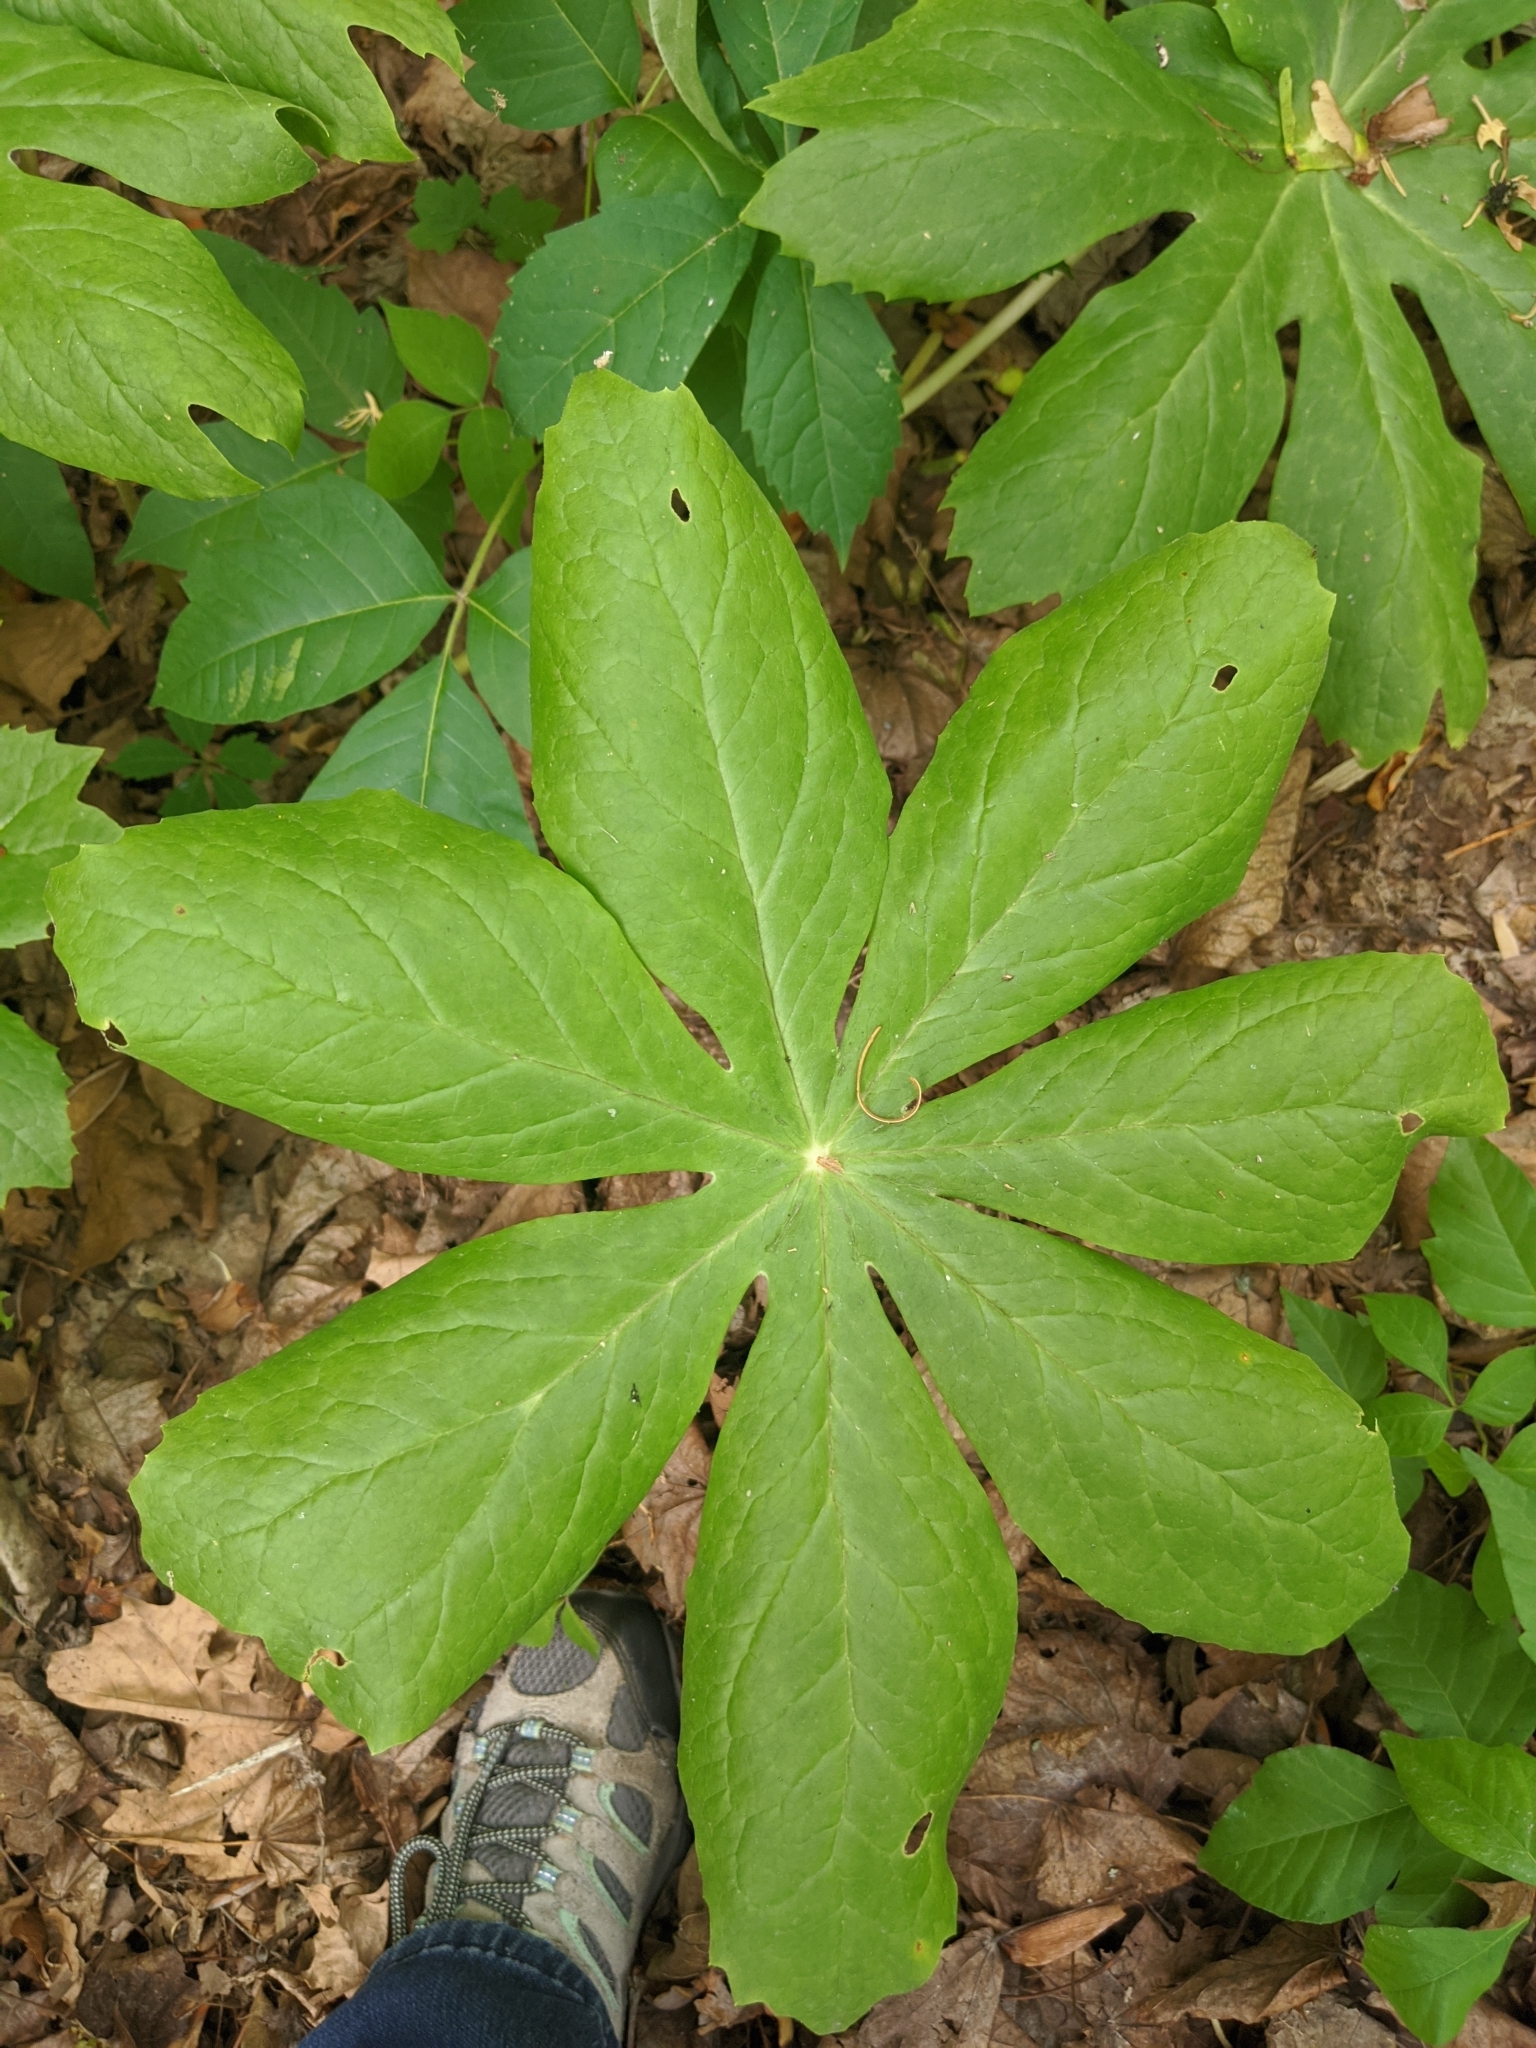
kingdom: Plantae
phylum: Tracheophyta
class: Magnoliopsida
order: Ranunculales
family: Berberidaceae
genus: Podophyllum
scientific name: Podophyllum peltatum
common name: Wild mandrake
